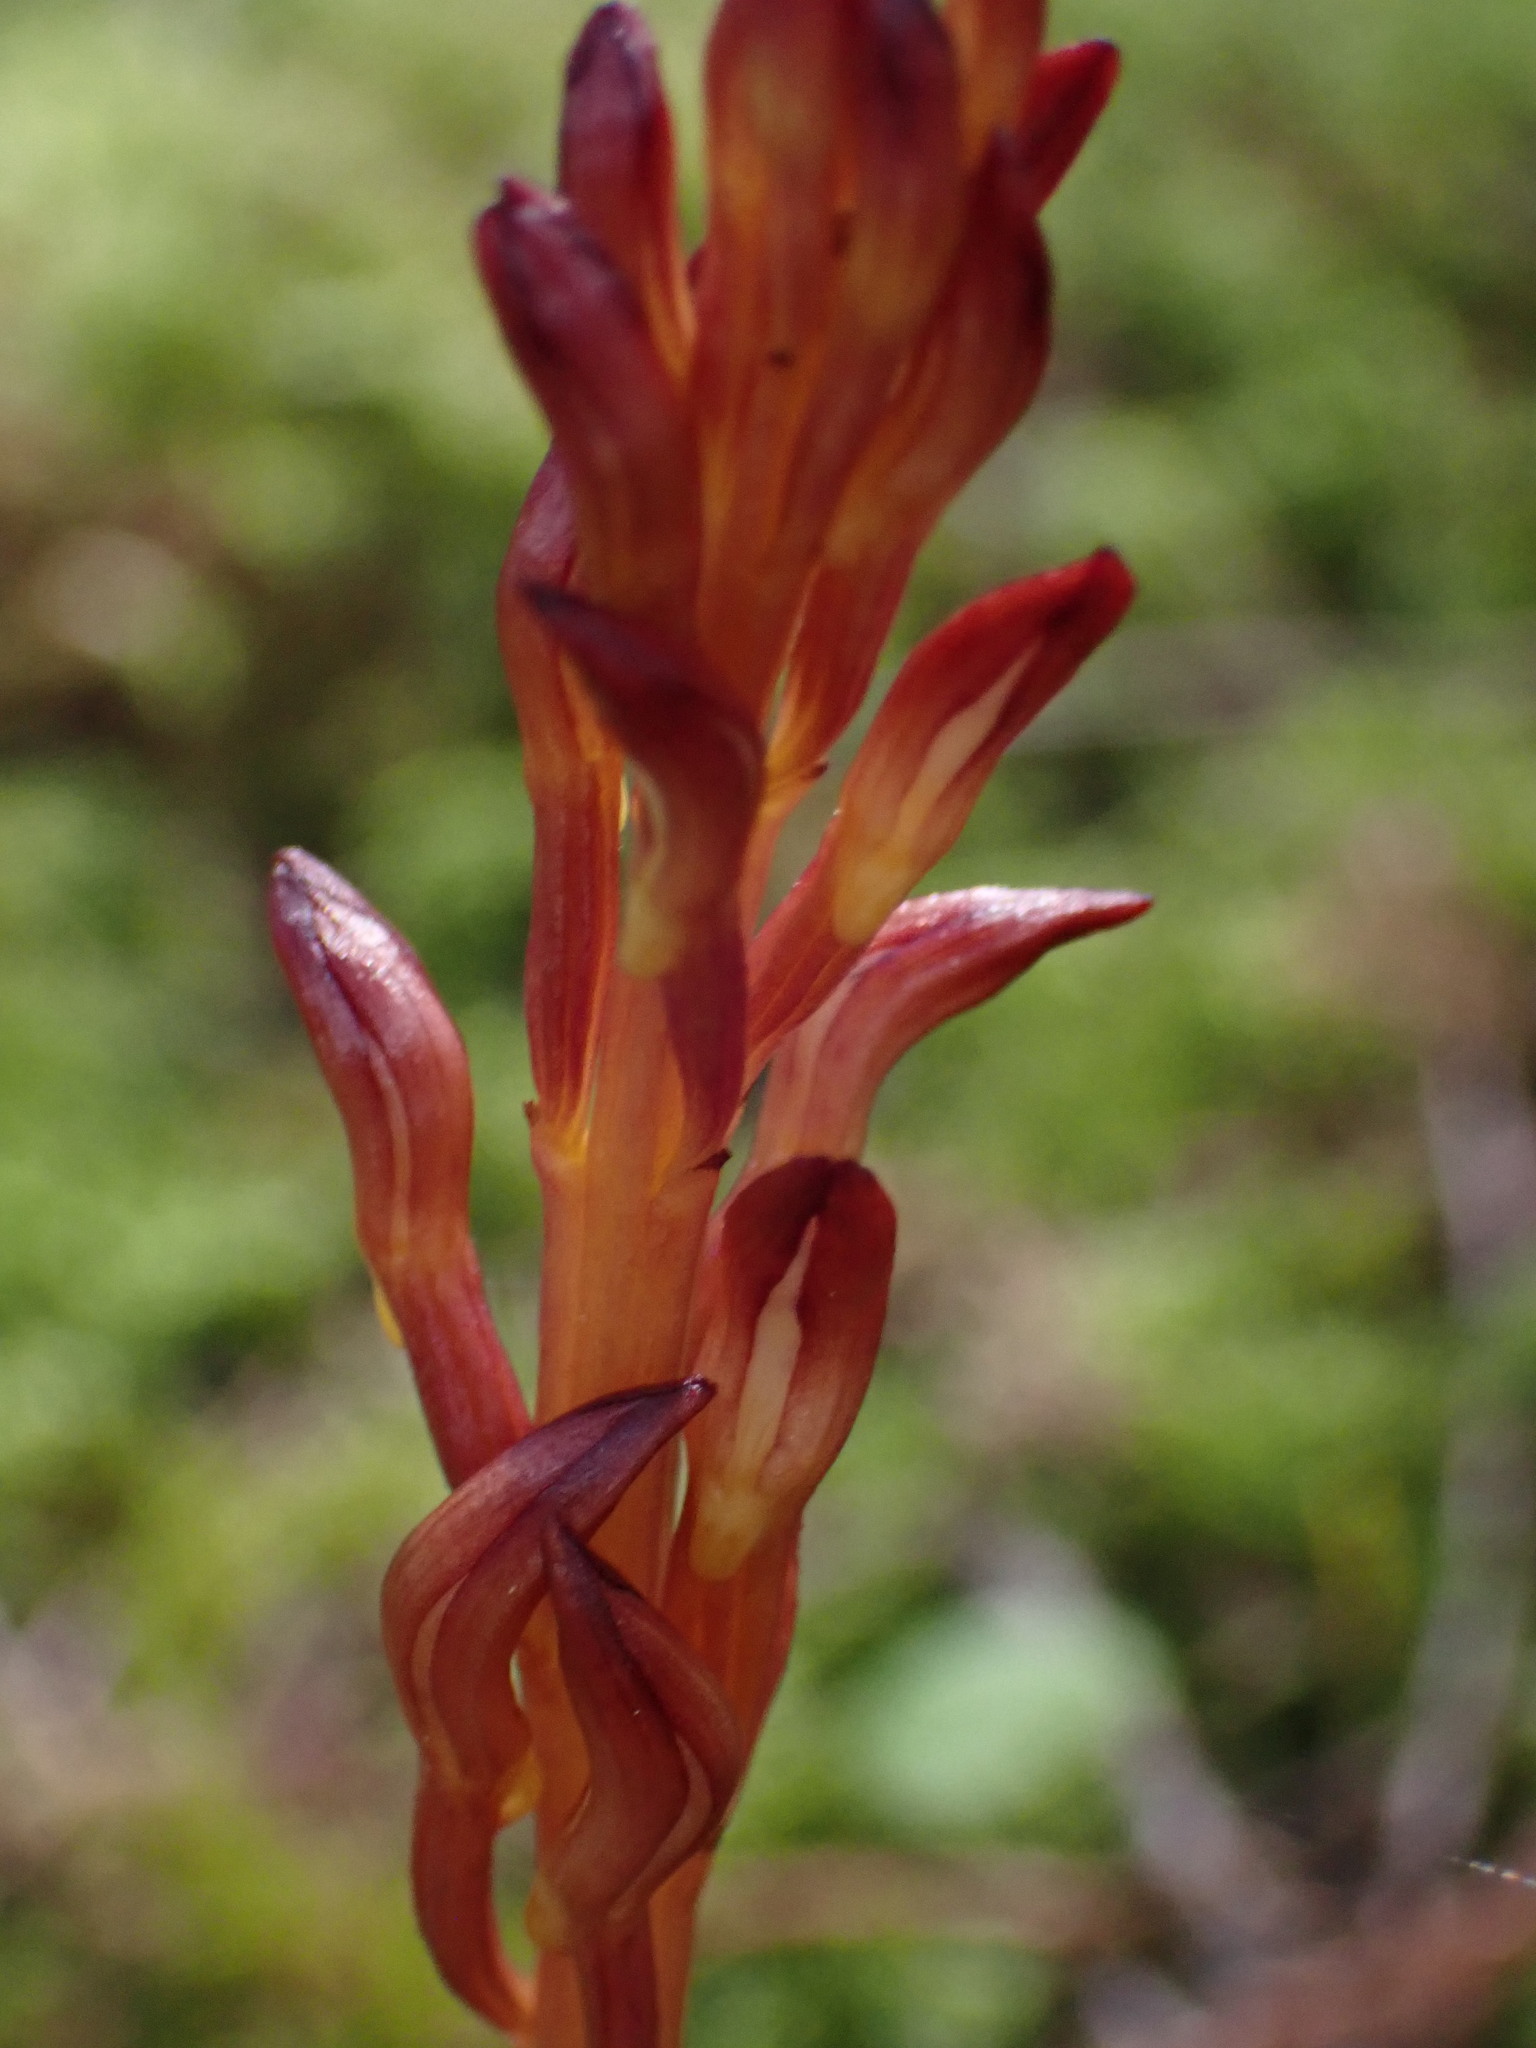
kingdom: Plantae
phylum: Tracheophyta
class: Liliopsida
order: Asparagales
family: Orchidaceae
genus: Corallorhiza
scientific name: Corallorhiza maculata
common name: Spotted coralroot
